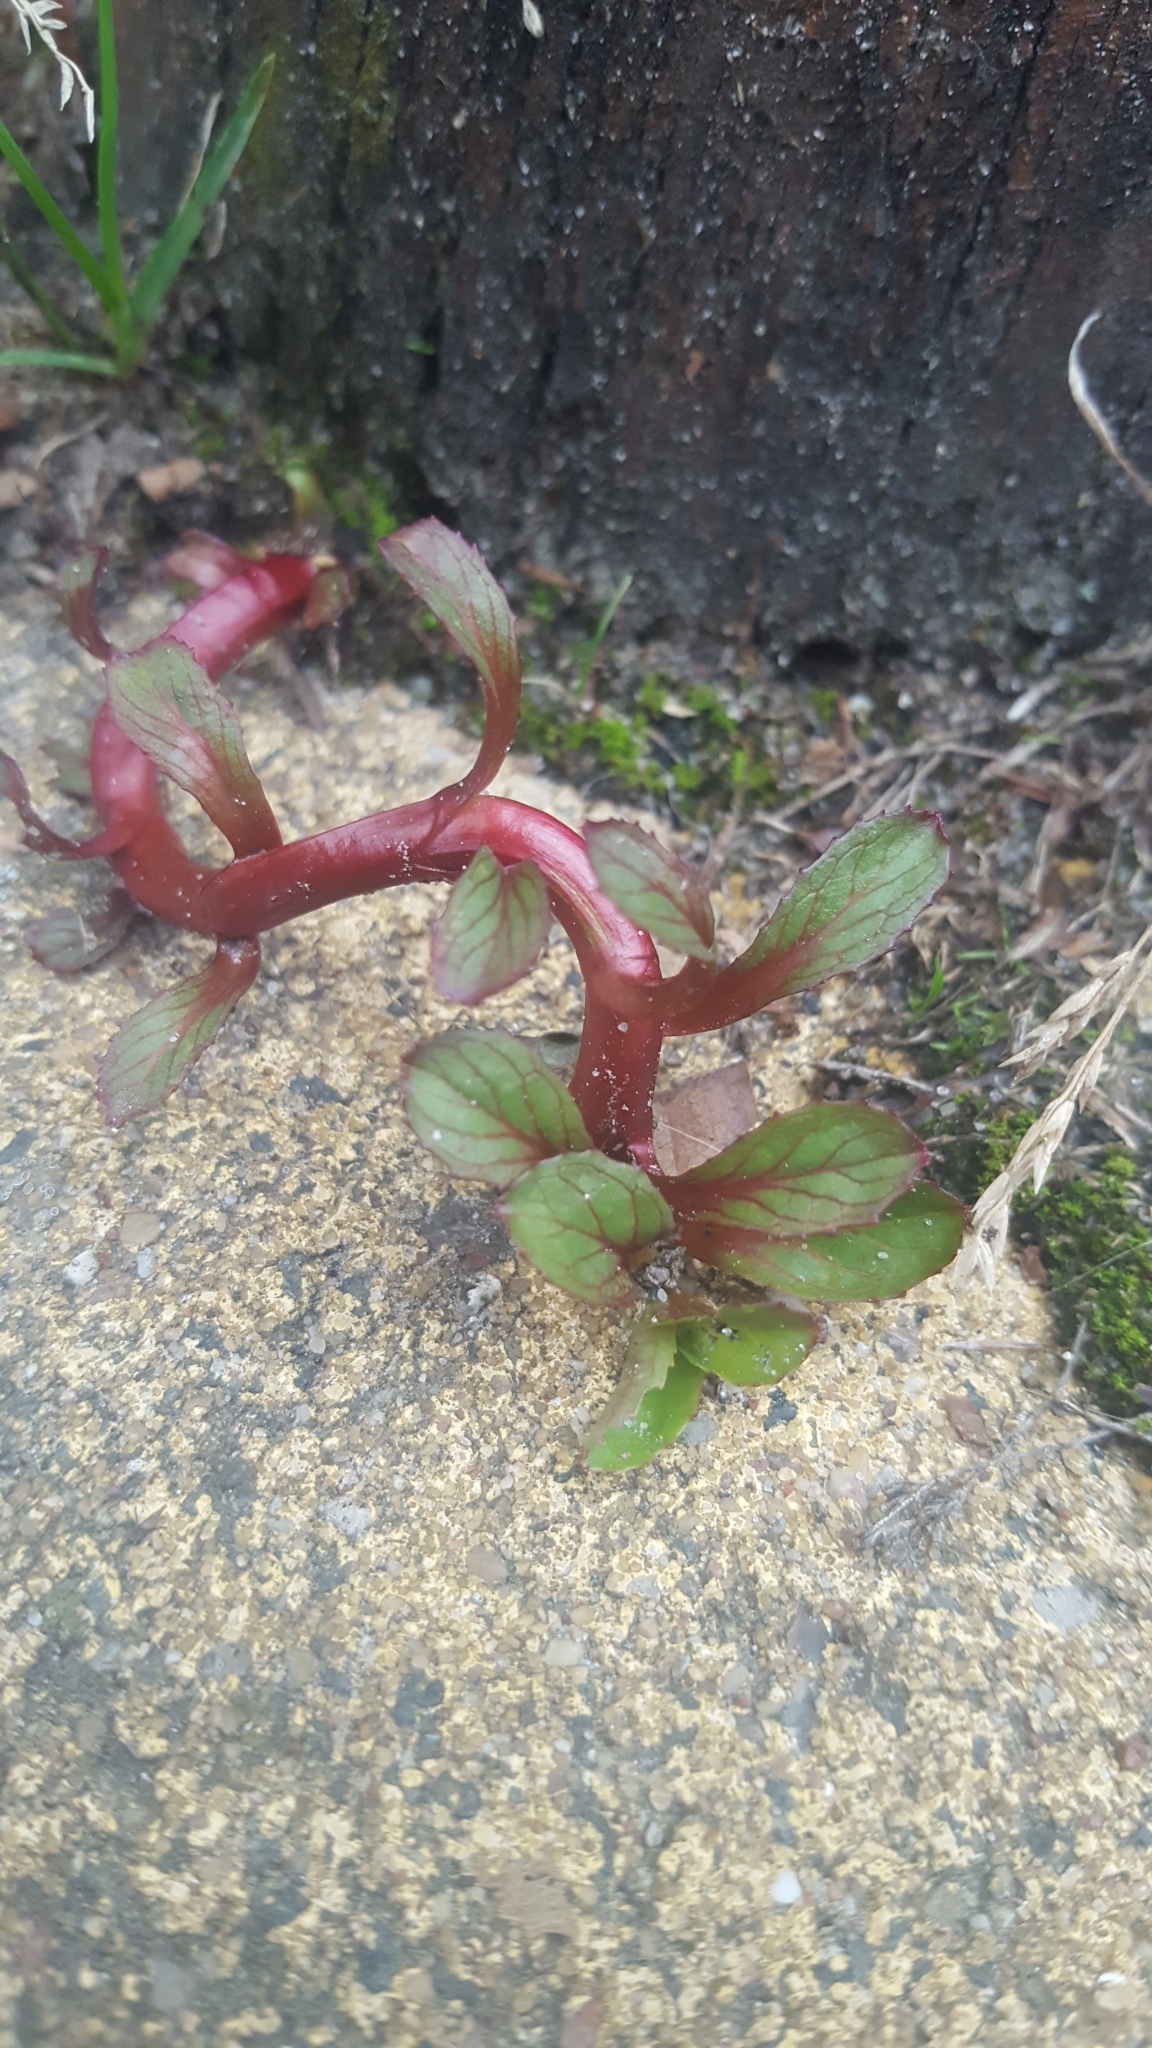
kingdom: Plantae
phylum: Tracheophyta
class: Magnoliopsida
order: Lamiales
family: Plantaginaceae
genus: Veronica
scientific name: Veronica beccabunga
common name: Brooklime
